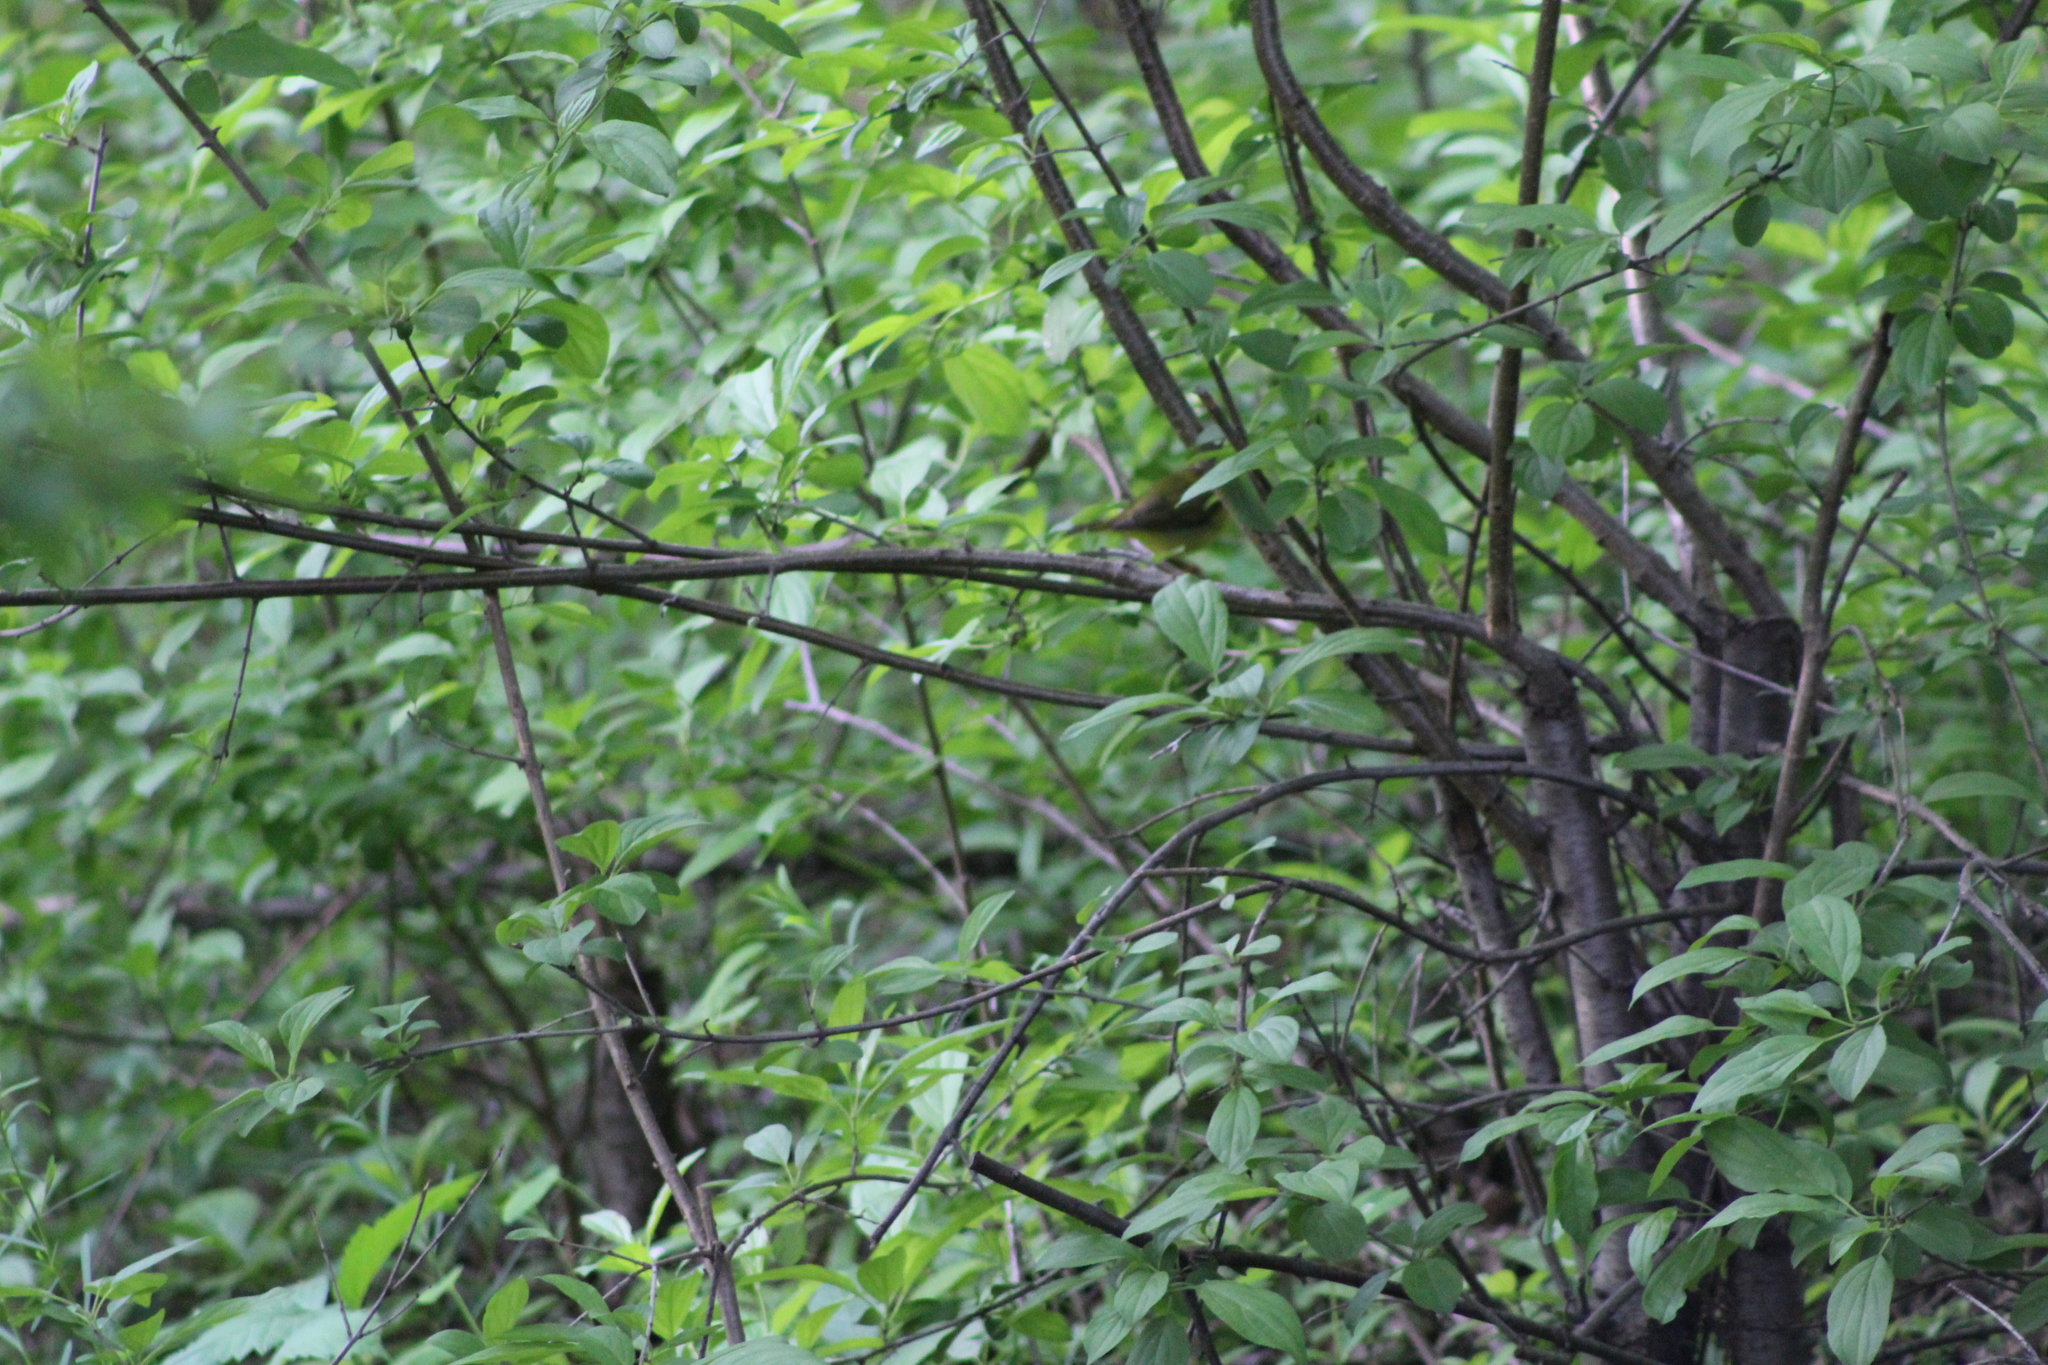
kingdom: Animalia
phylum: Chordata
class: Aves
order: Passeriformes
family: Parulidae
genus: Cardellina
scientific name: Cardellina pusilla
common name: Wilson's warbler
